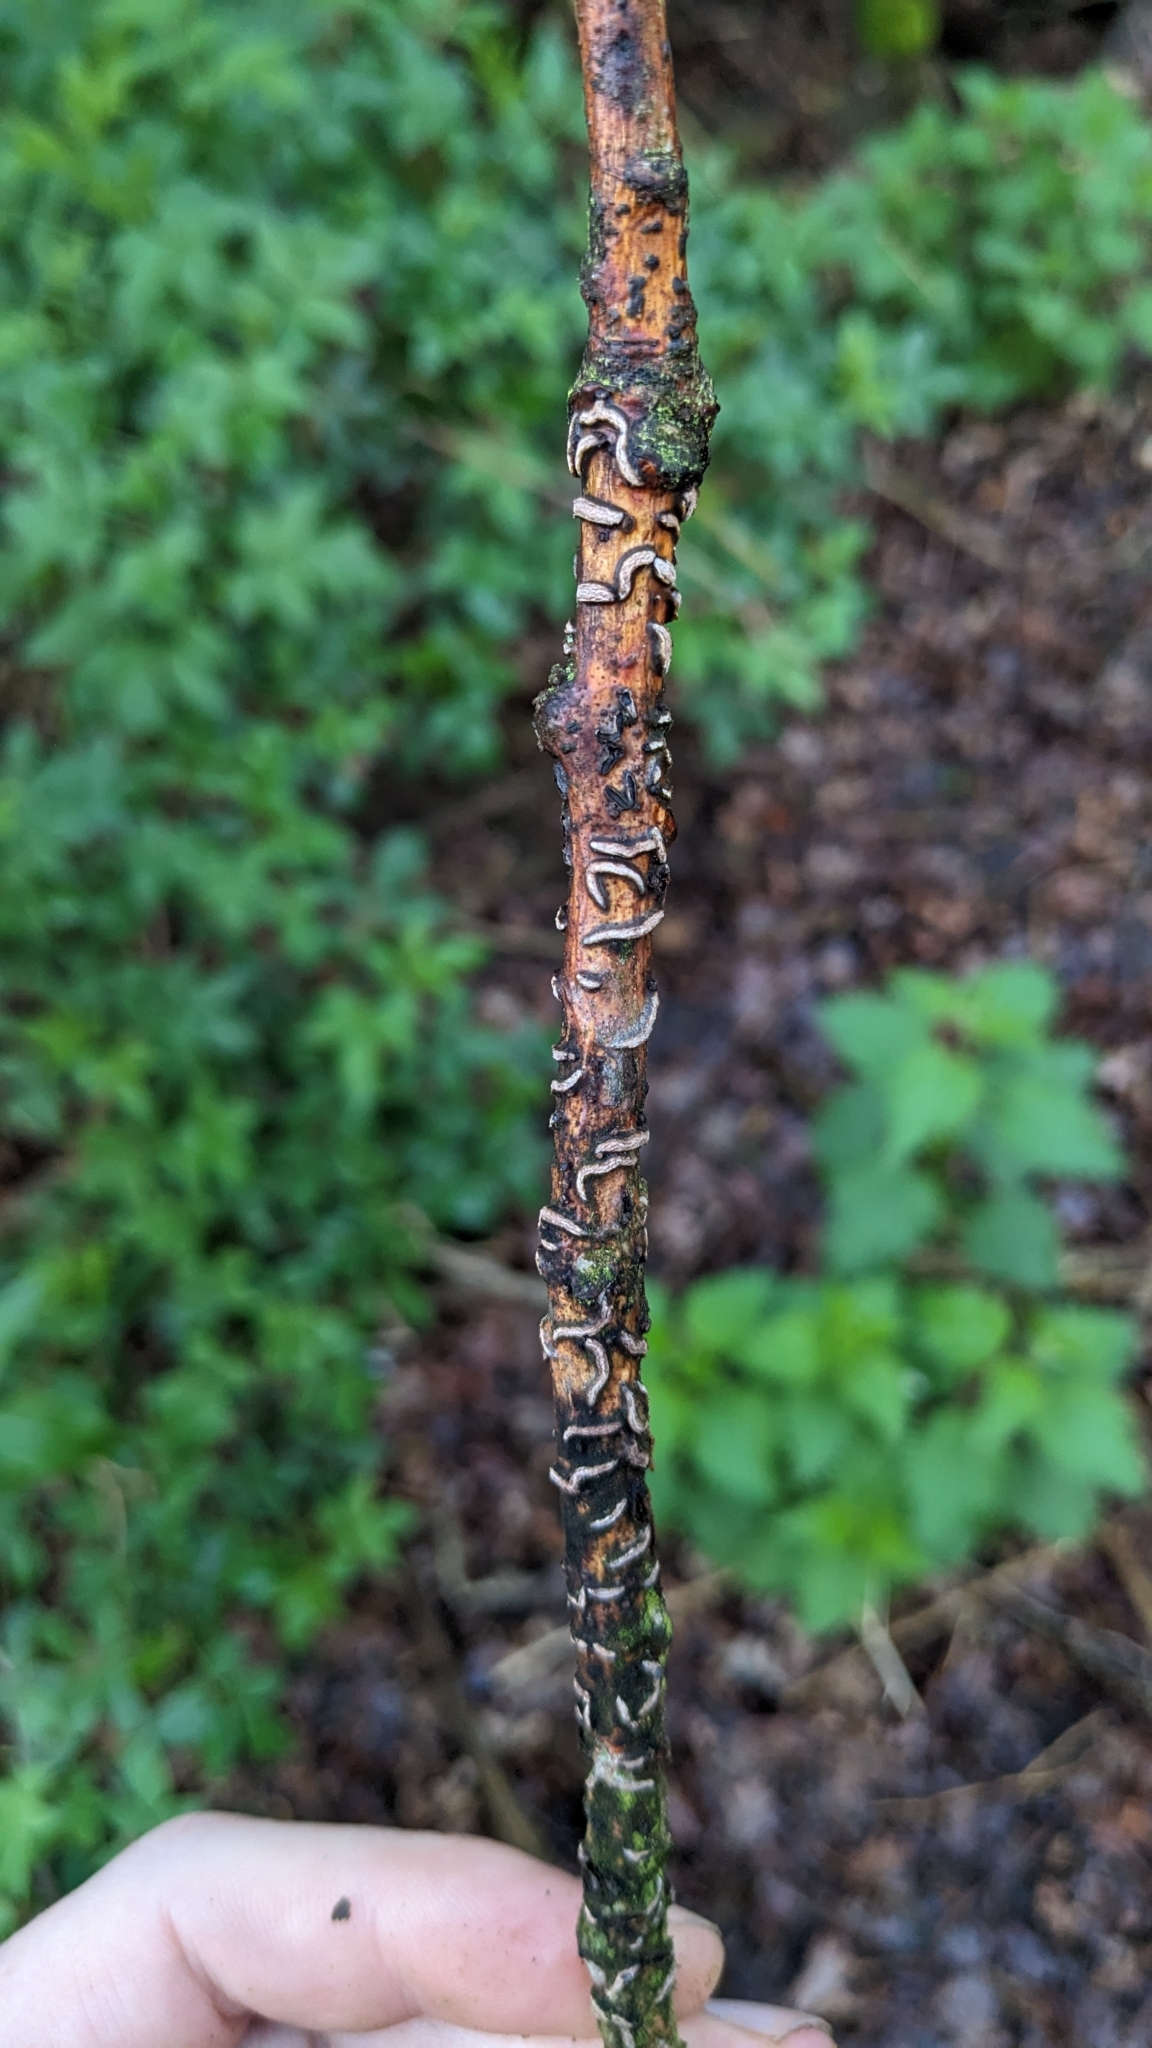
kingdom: Fungi
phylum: Ascomycota
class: Leotiomycetes
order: Rhytismatales
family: Rhytismataceae
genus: Colpoma
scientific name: Colpoma quercinum
